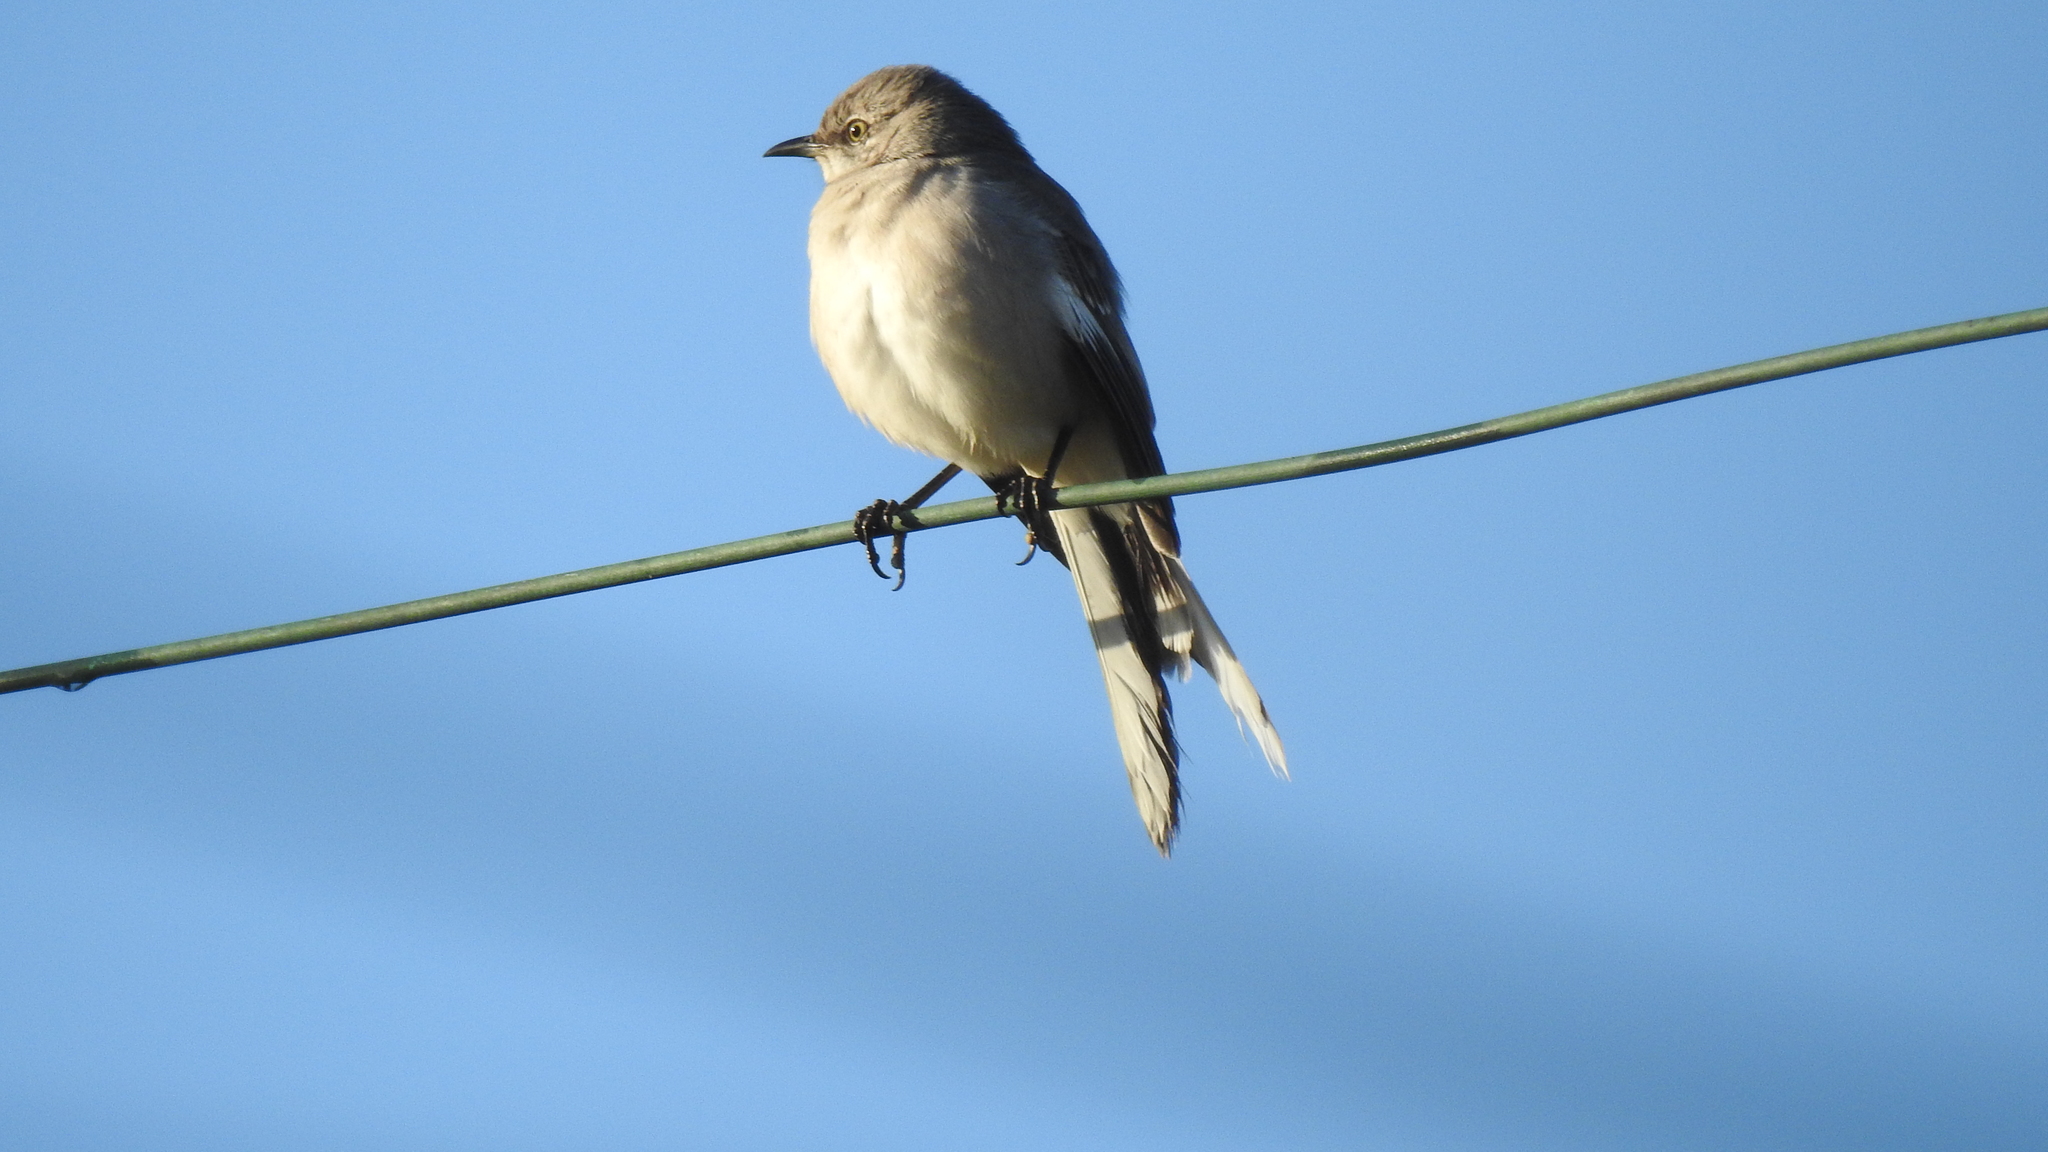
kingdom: Animalia
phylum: Chordata
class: Aves
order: Passeriformes
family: Mimidae
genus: Mimus
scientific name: Mimus polyglottos
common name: Northern mockingbird
